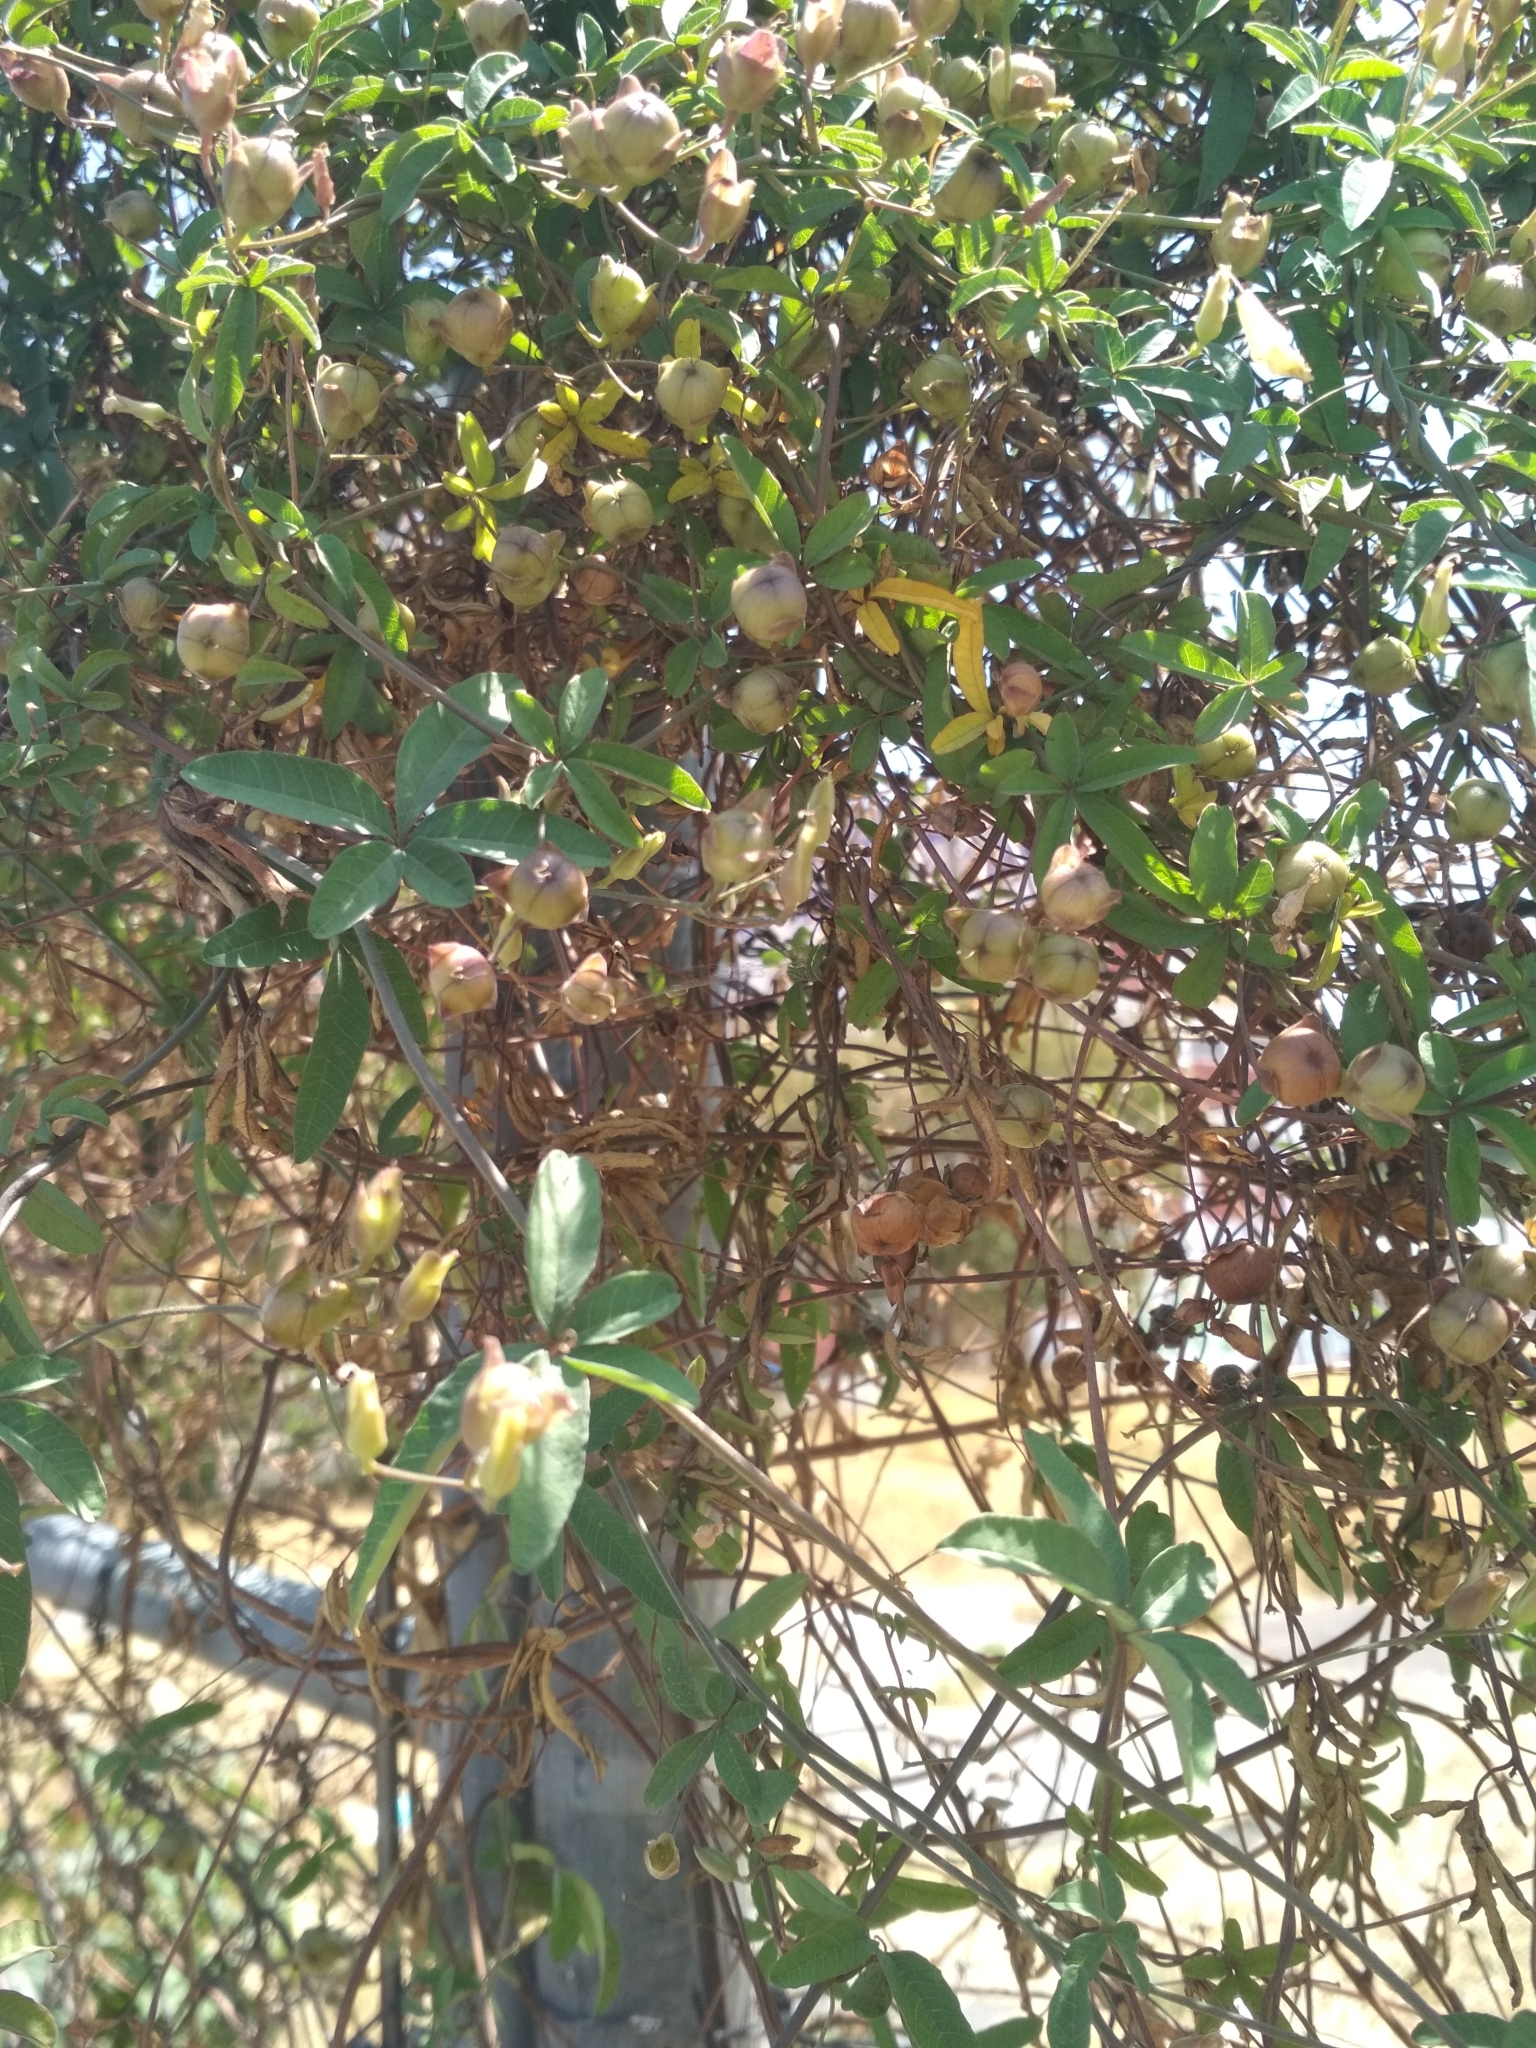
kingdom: Plantae
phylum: Tracheophyta
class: Magnoliopsida
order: Solanales
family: Convolvulaceae
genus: Distimake
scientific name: Distimake quinquefolius
